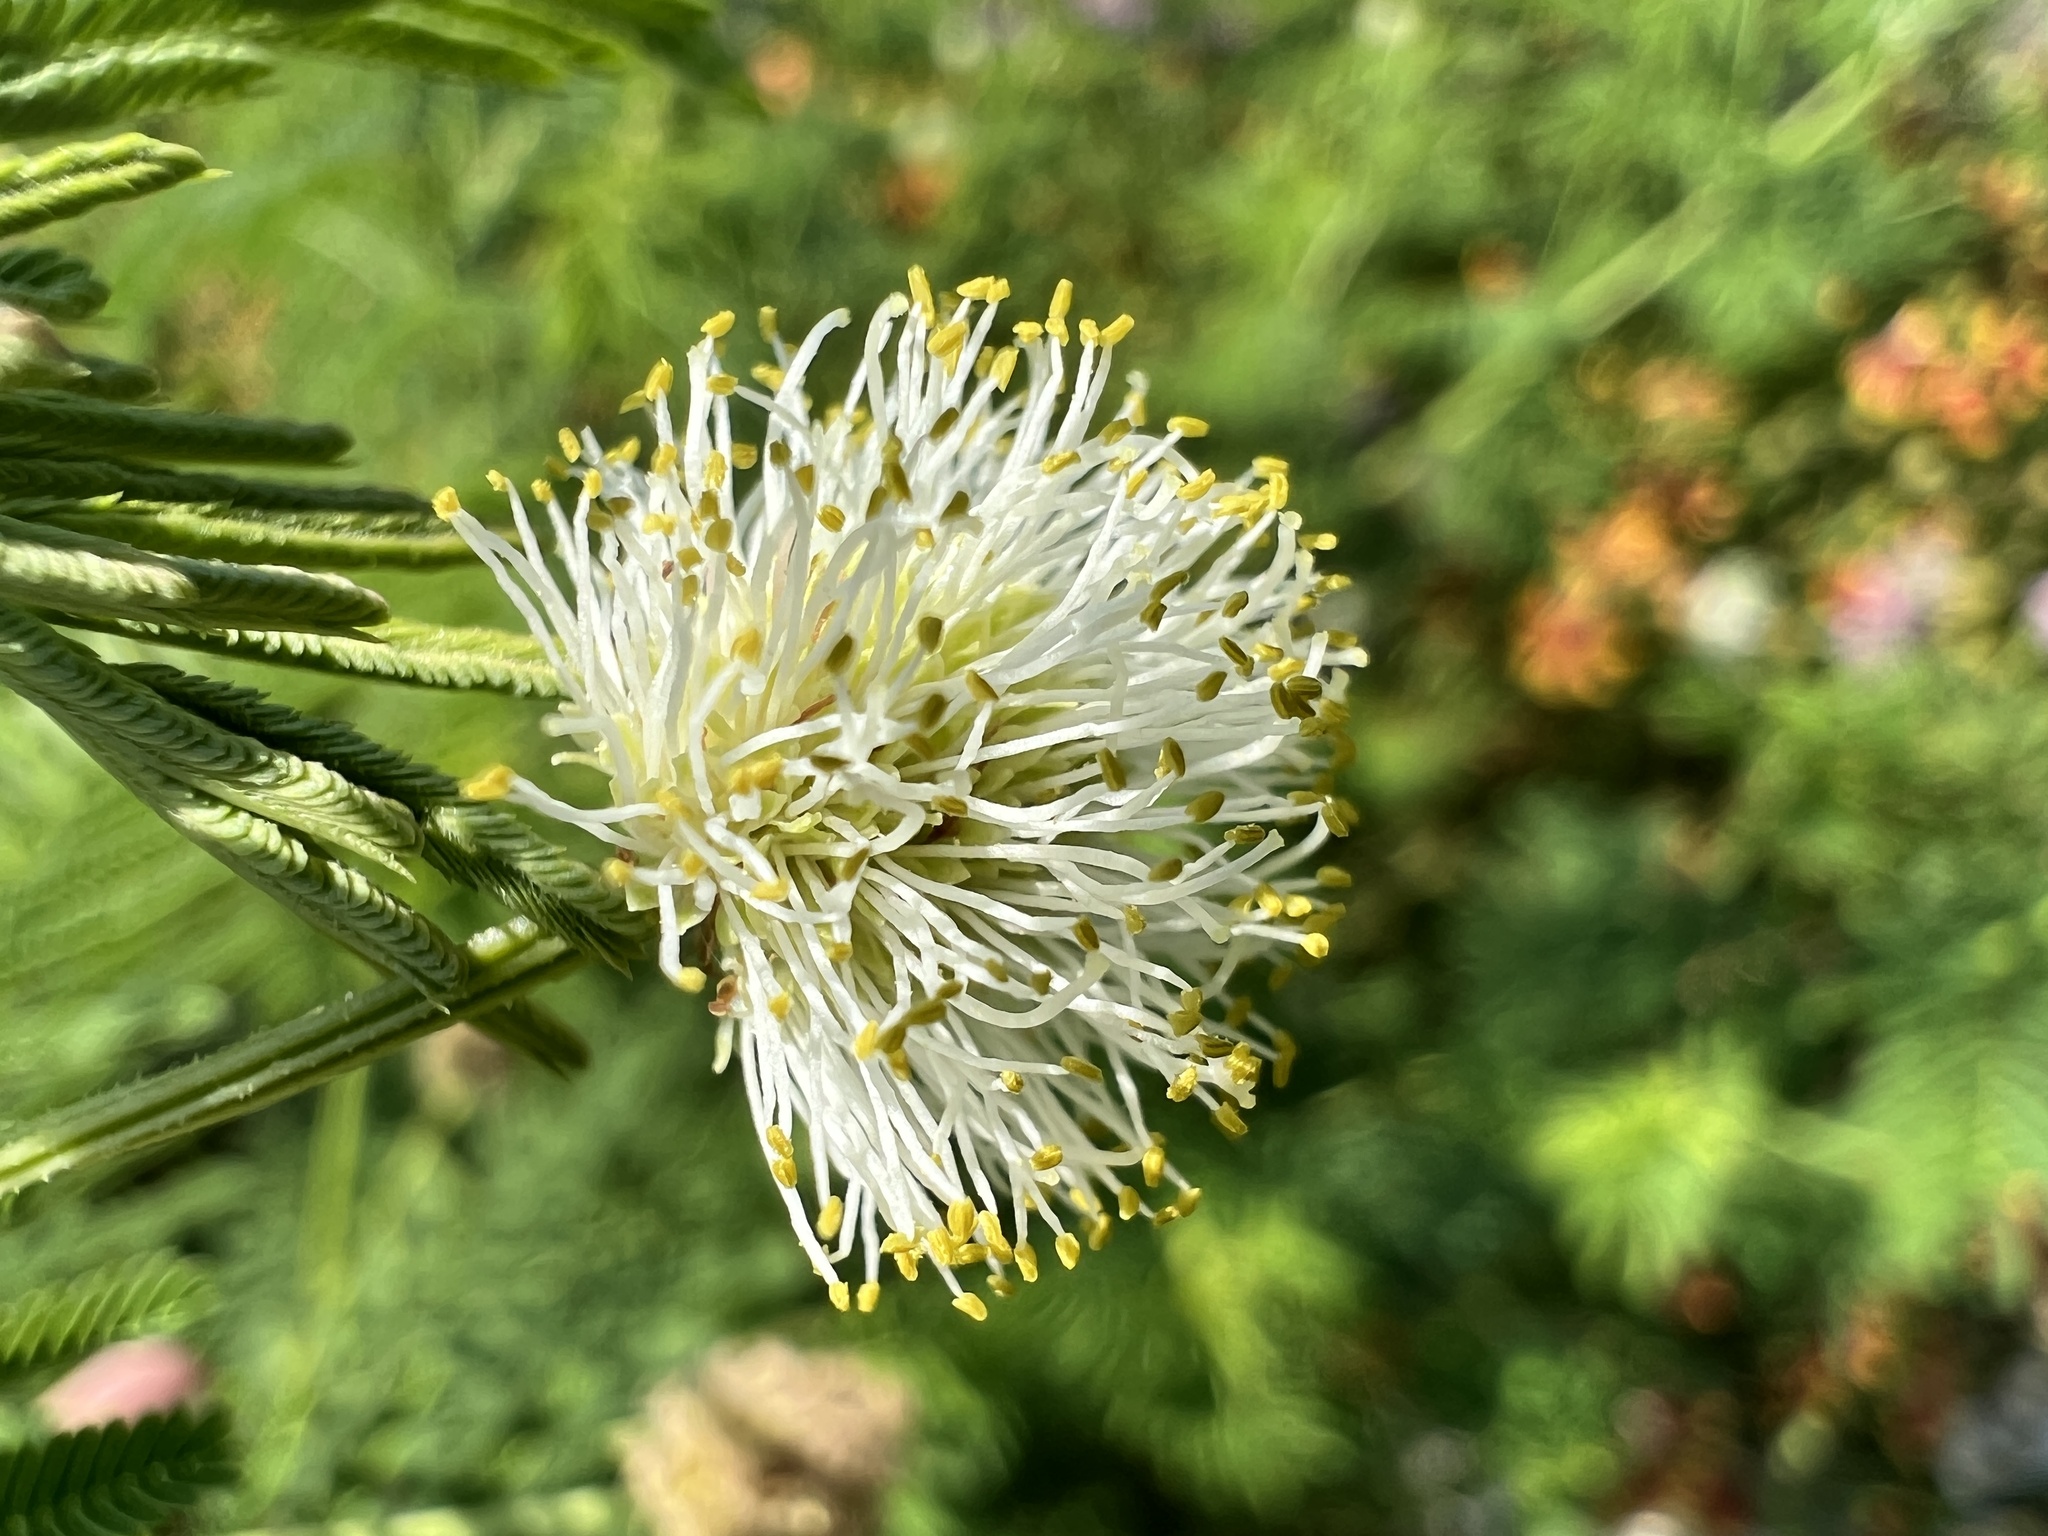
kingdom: Plantae
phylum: Tracheophyta
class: Magnoliopsida
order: Fabales
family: Fabaceae
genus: Desmanthus
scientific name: Desmanthus illinoensis
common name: Illinois bundle-flower
